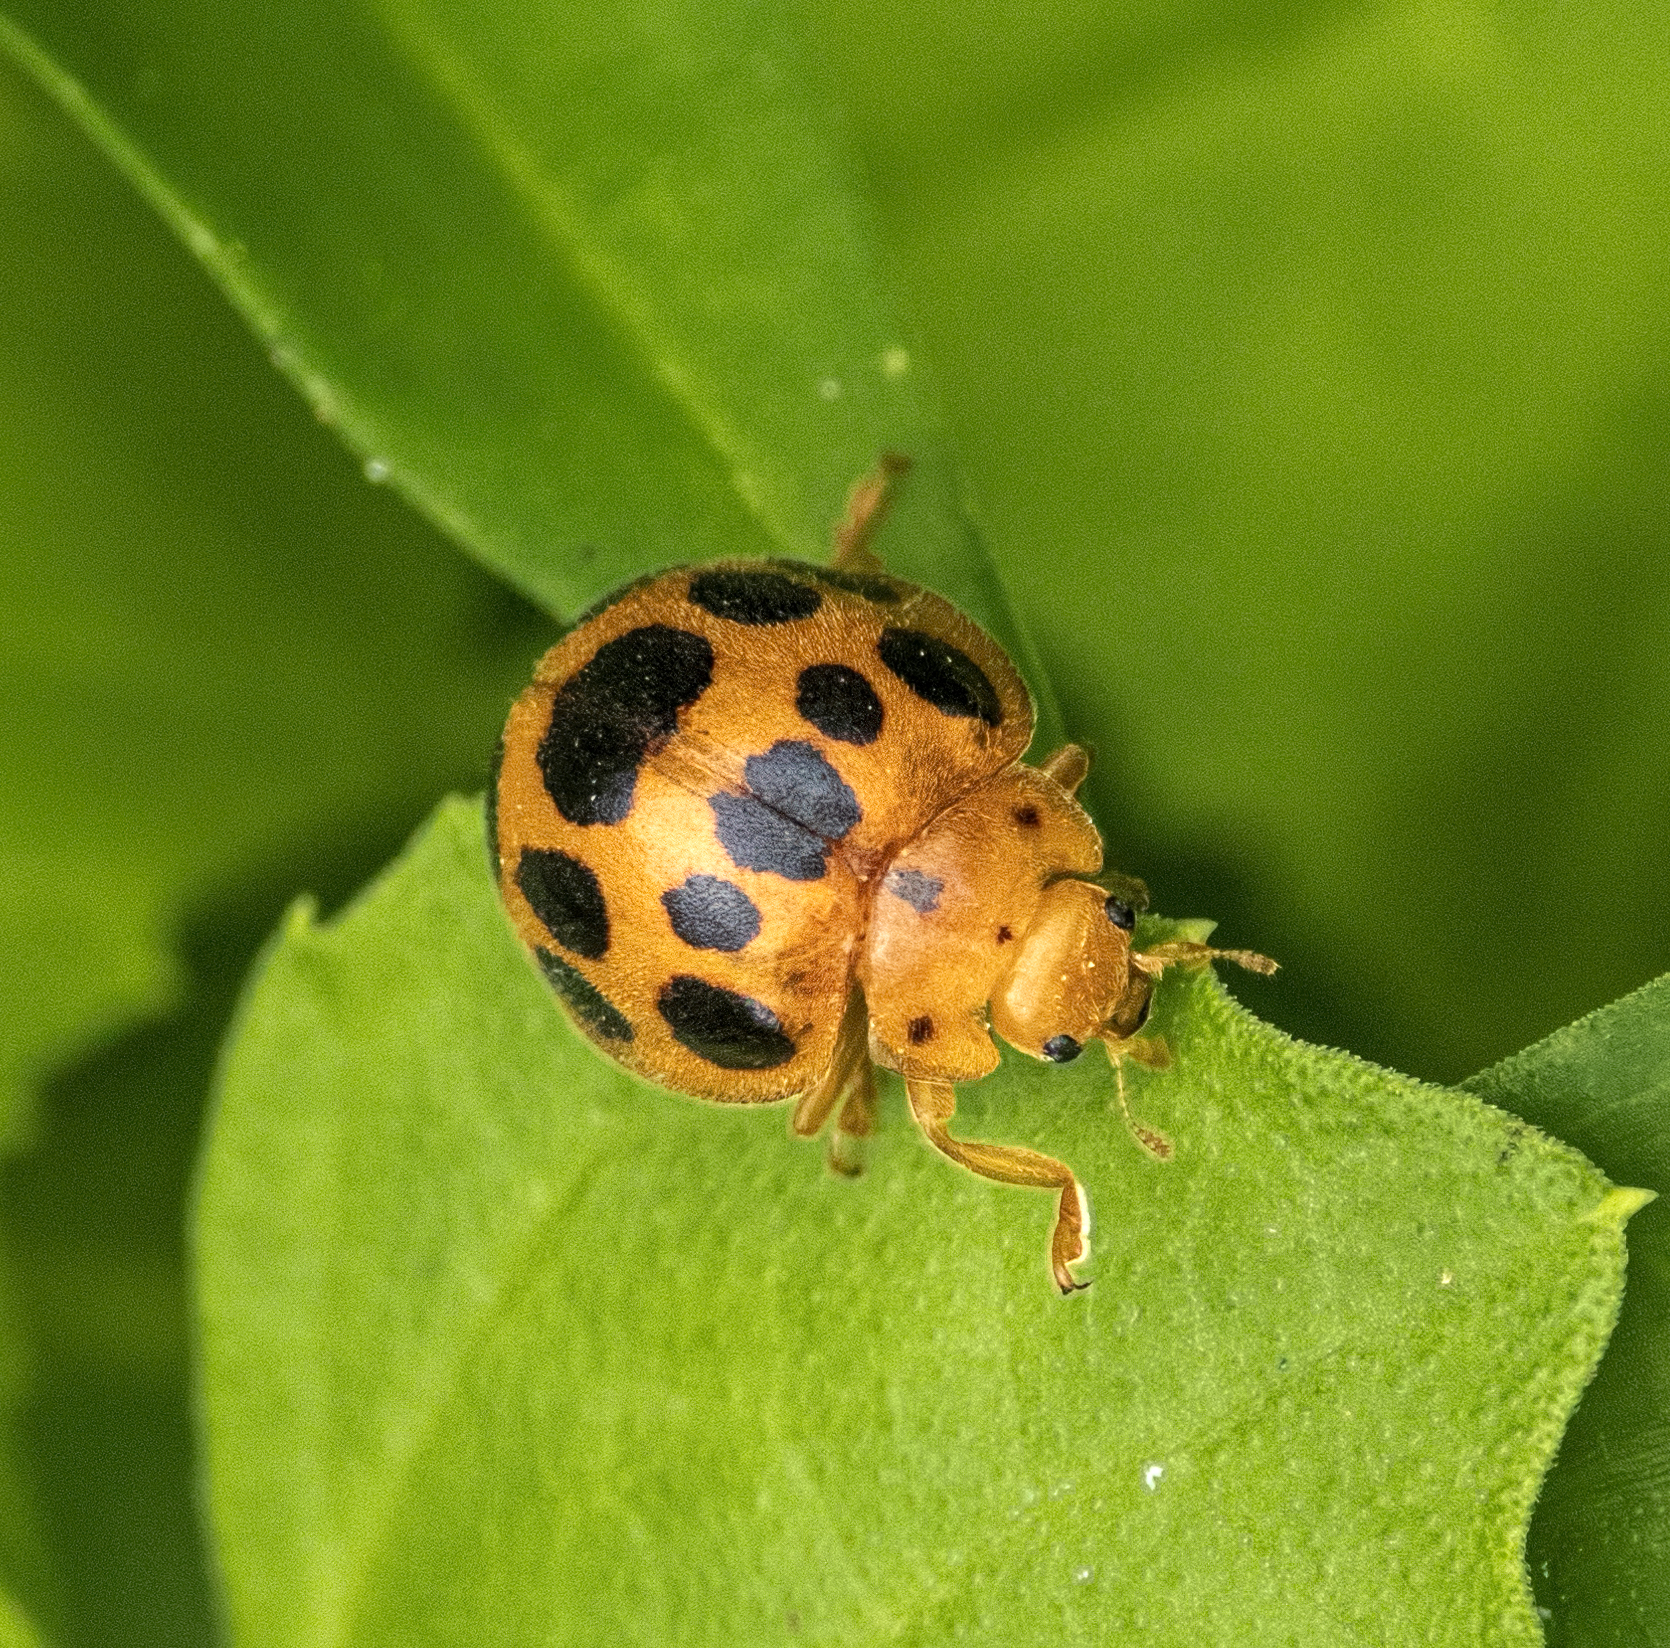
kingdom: Animalia
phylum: Arthropoda
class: Insecta
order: Coleoptera
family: Coccinellidae
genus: Epilachna
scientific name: Epilachna borealis
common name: Squash beetle
